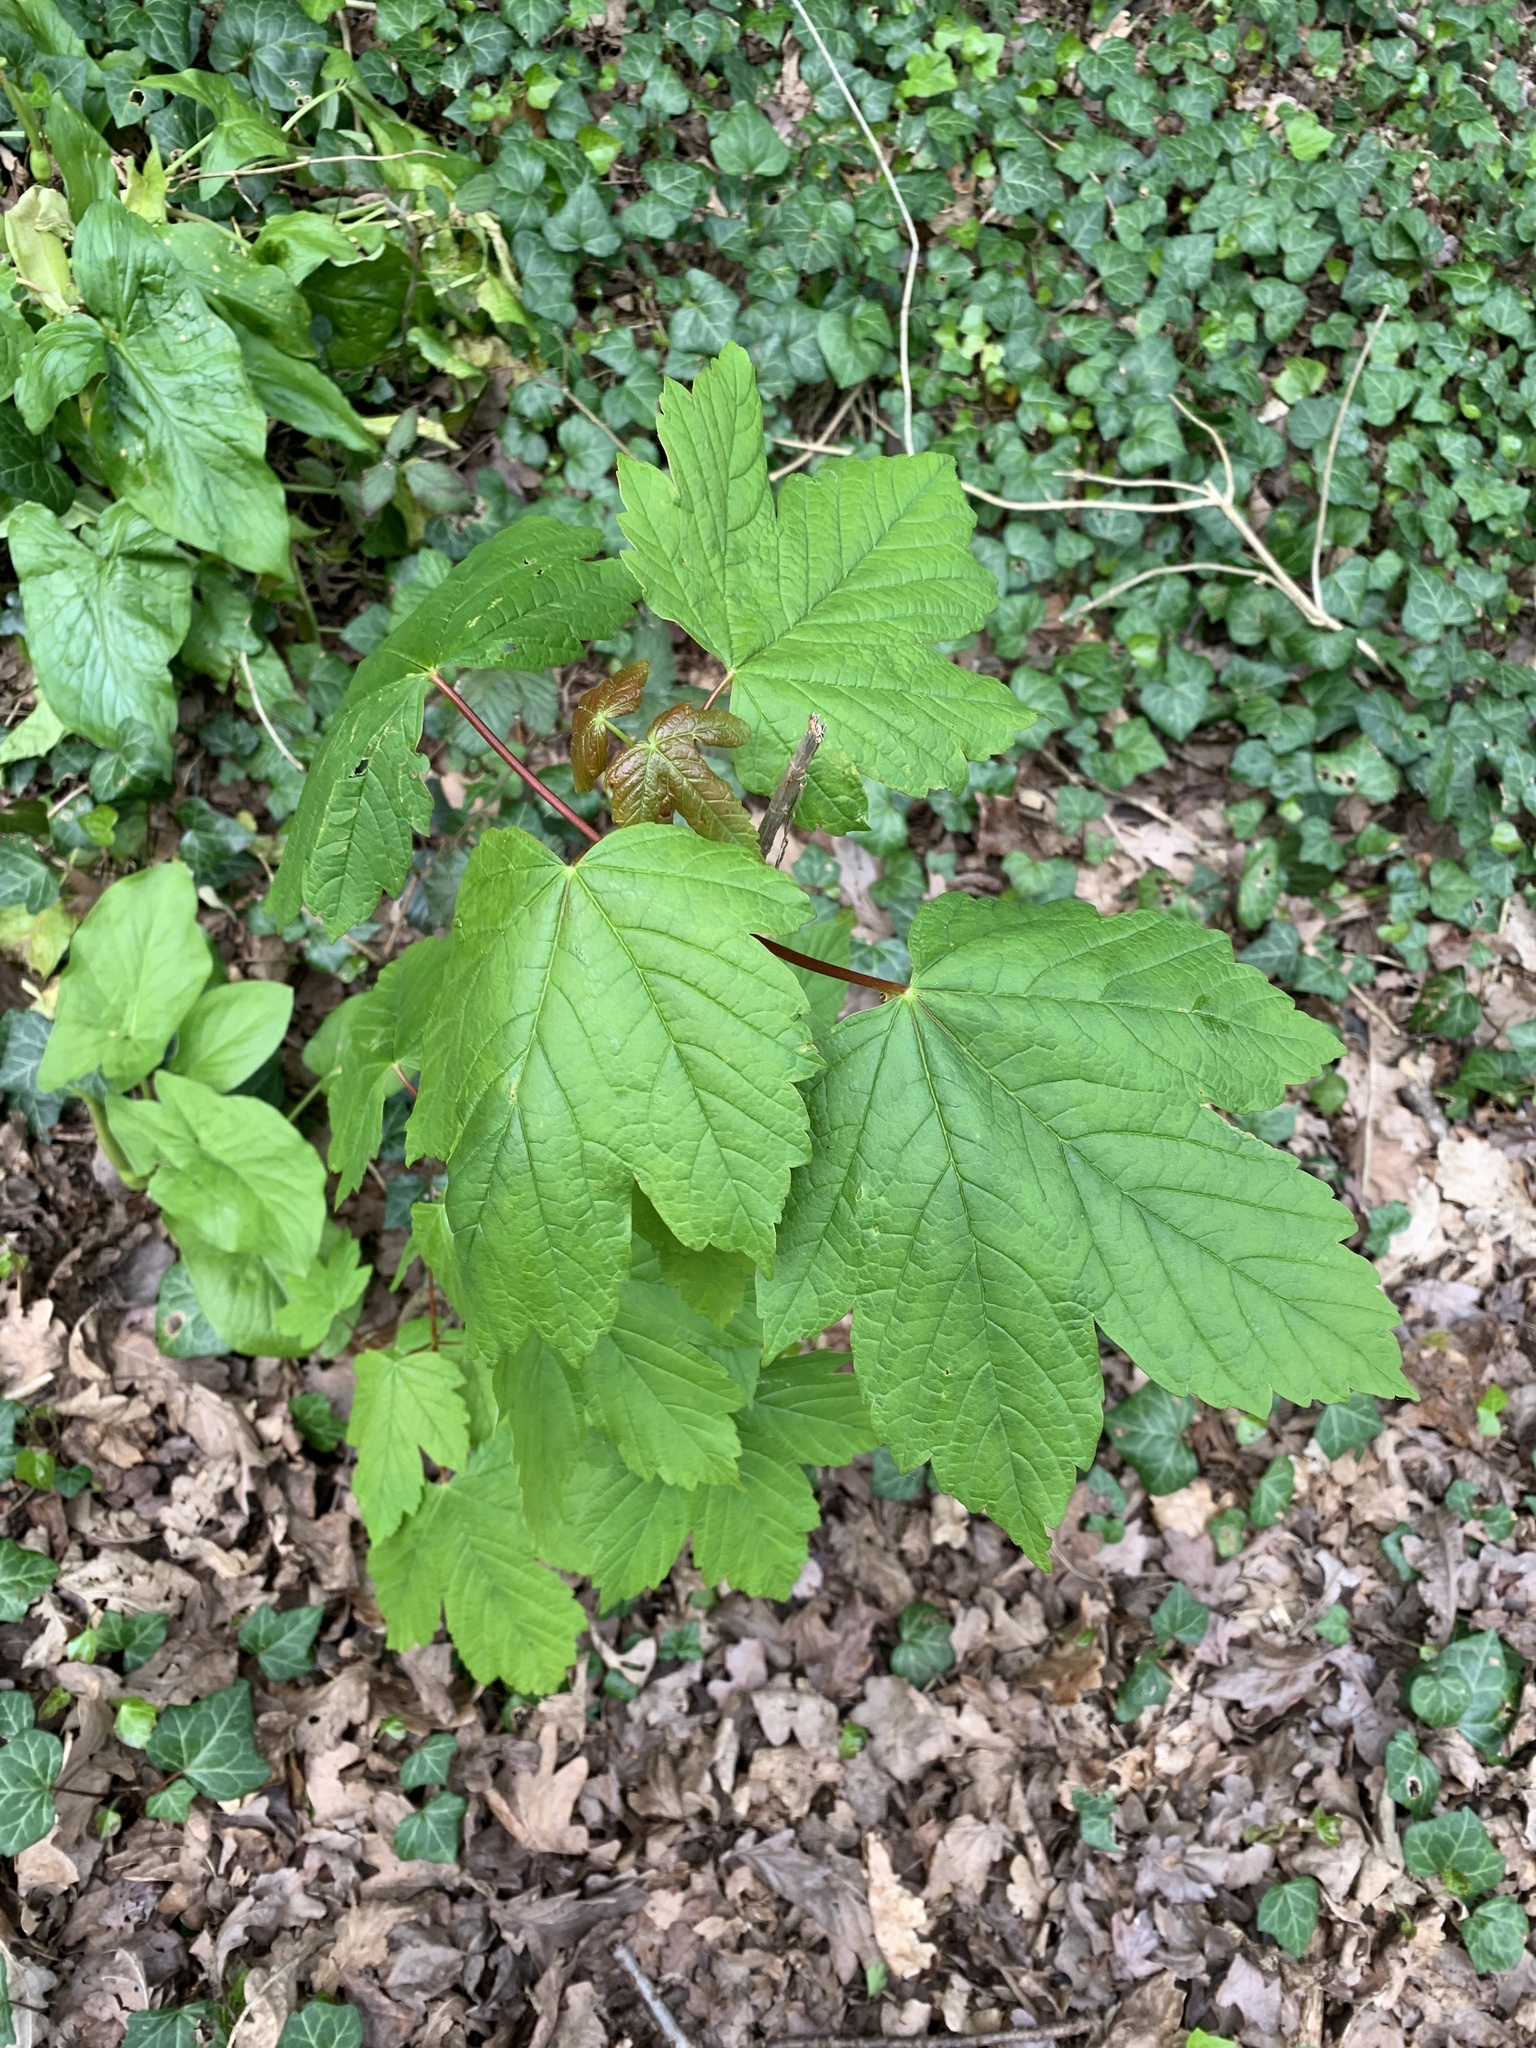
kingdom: Plantae
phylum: Tracheophyta
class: Magnoliopsida
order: Sapindales
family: Sapindaceae
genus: Acer
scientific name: Acer pseudoplatanus
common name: Sycamore
